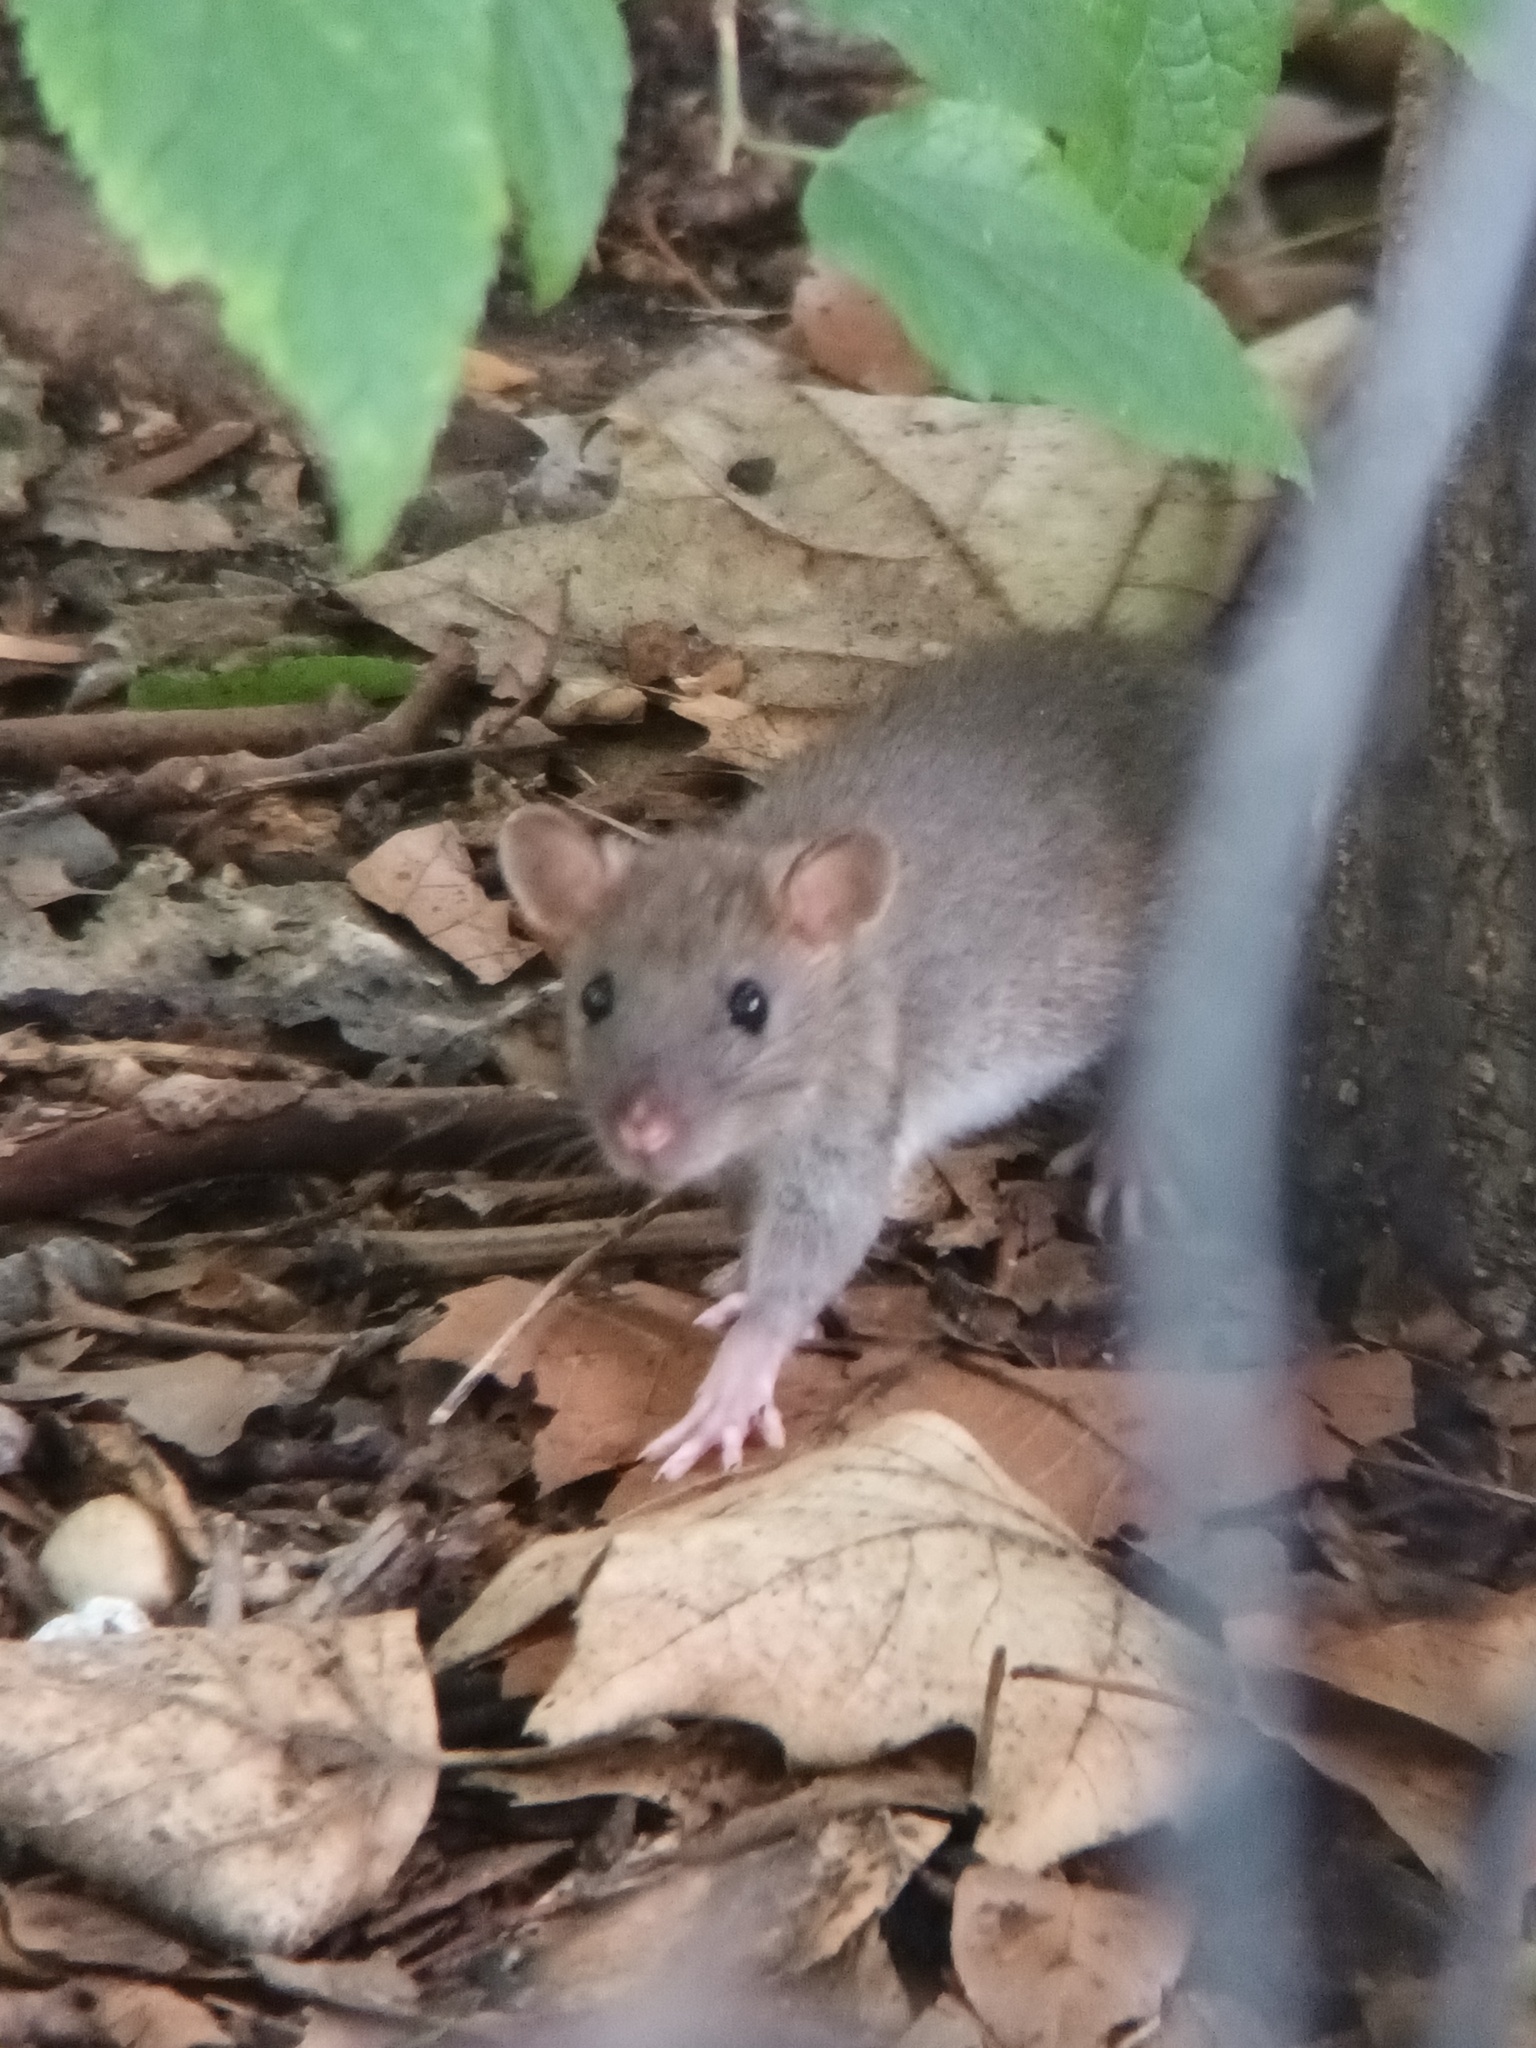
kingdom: Animalia
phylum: Chordata
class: Mammalia
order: Rodentia
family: Muridae
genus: Rattus
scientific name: Rattus norvegicus
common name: Brown rat
